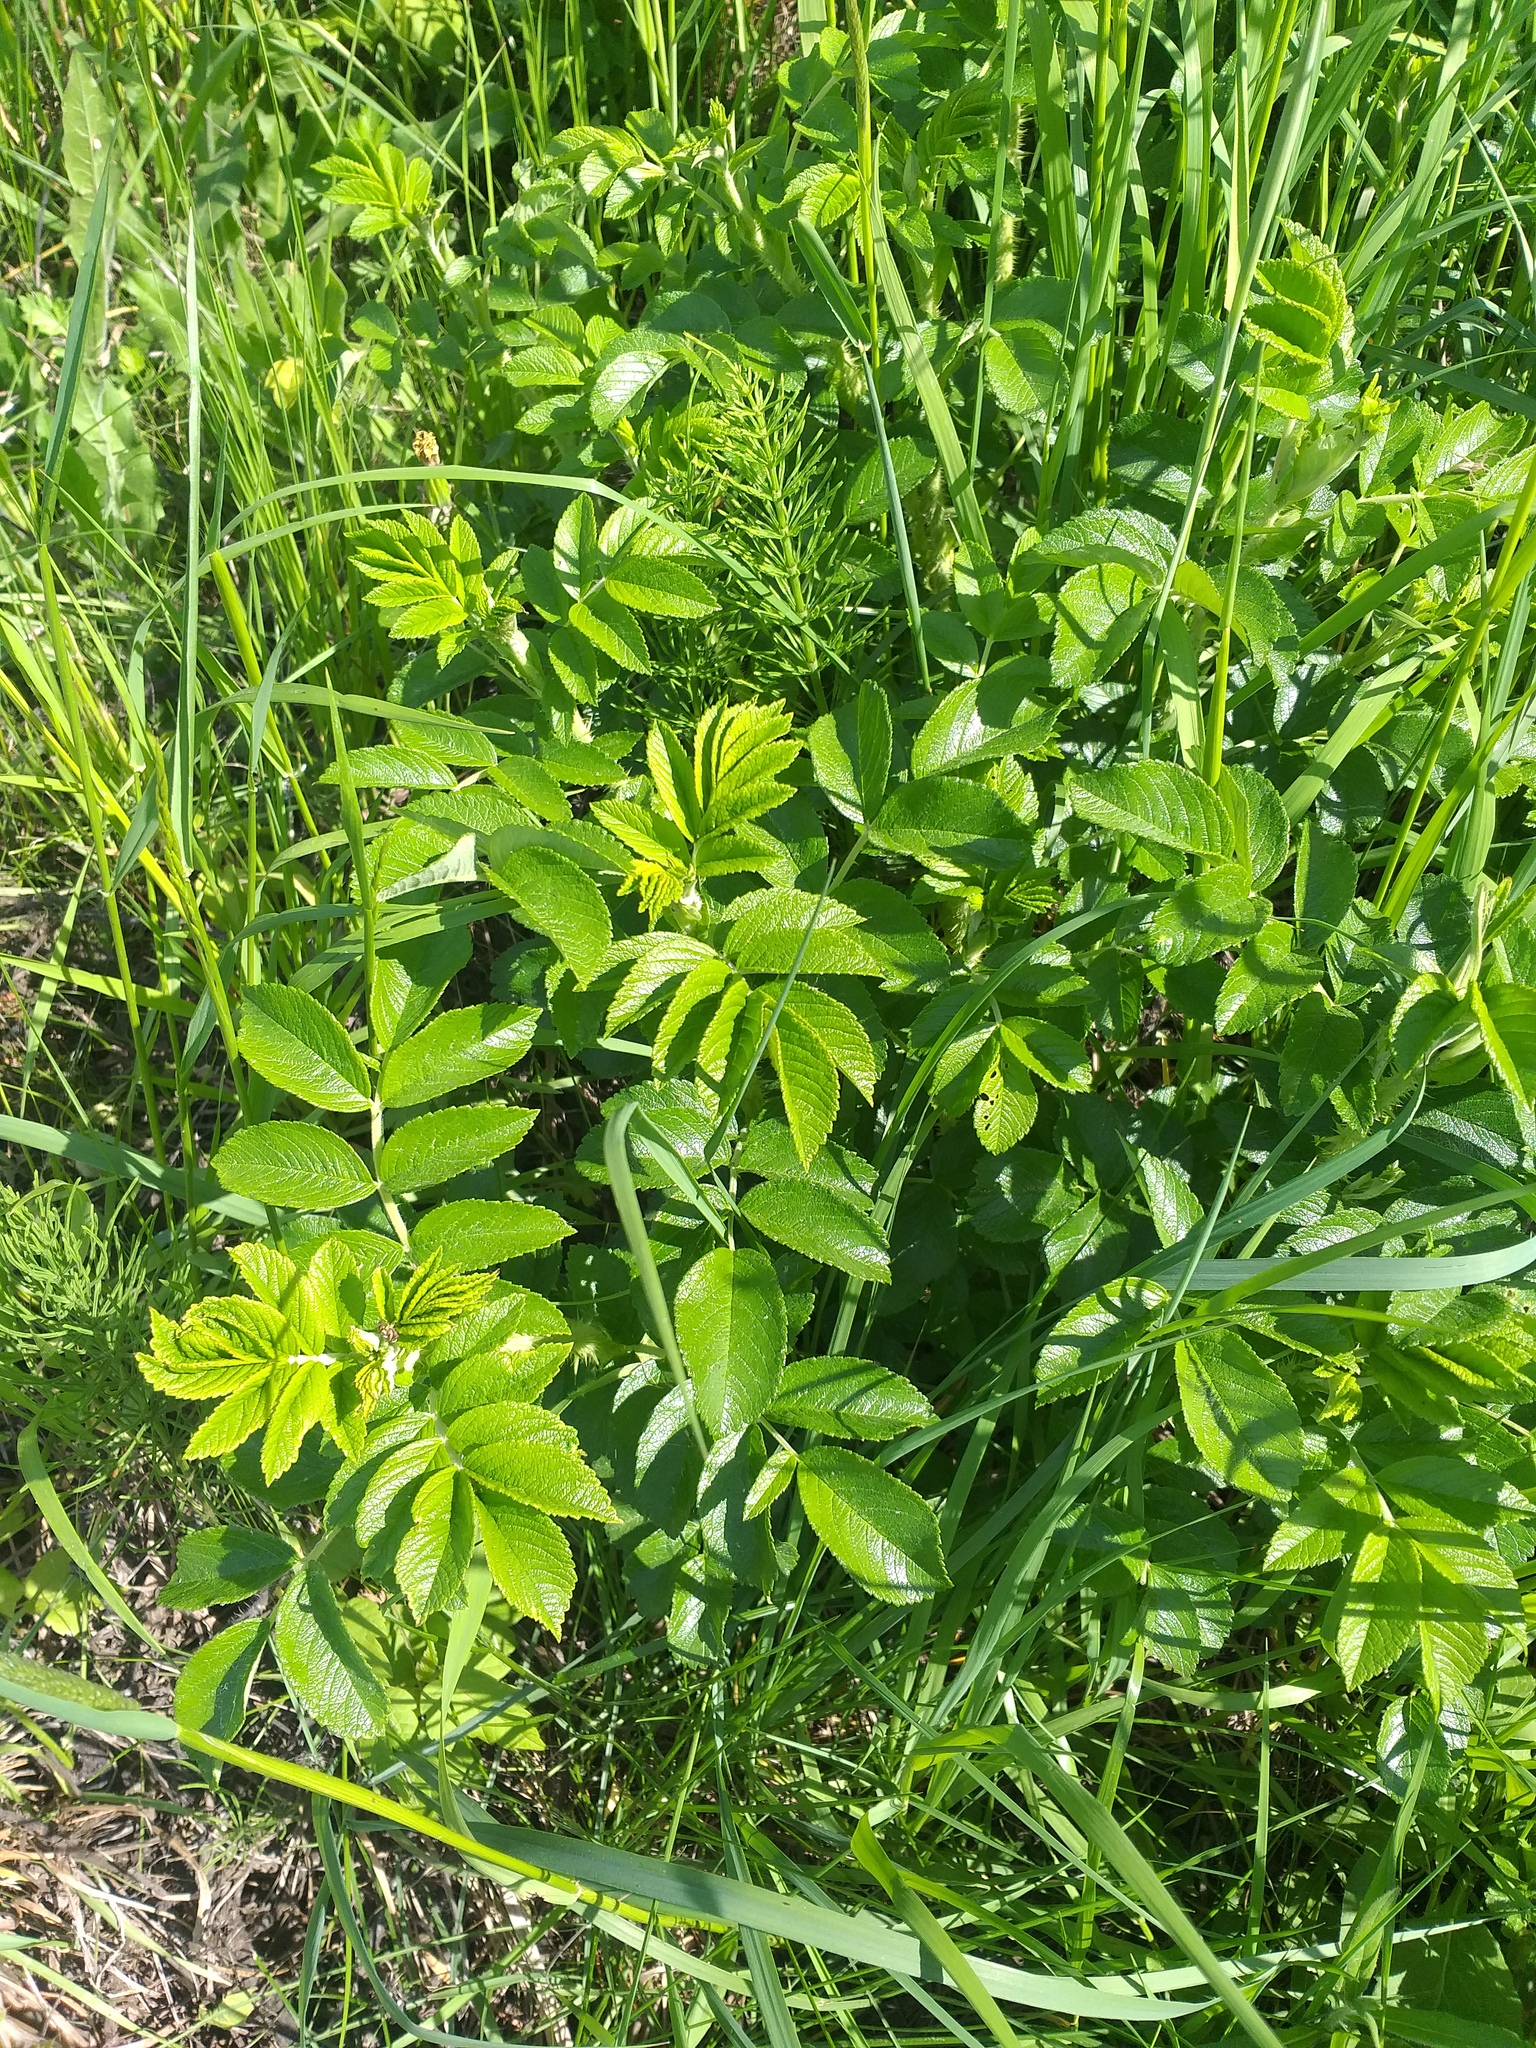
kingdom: Plantae
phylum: Tracheophyta
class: Magnoliopsida
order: Rosales
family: Rosaceae
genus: Rosa
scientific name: Rosa rugosa
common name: Japanese rose
